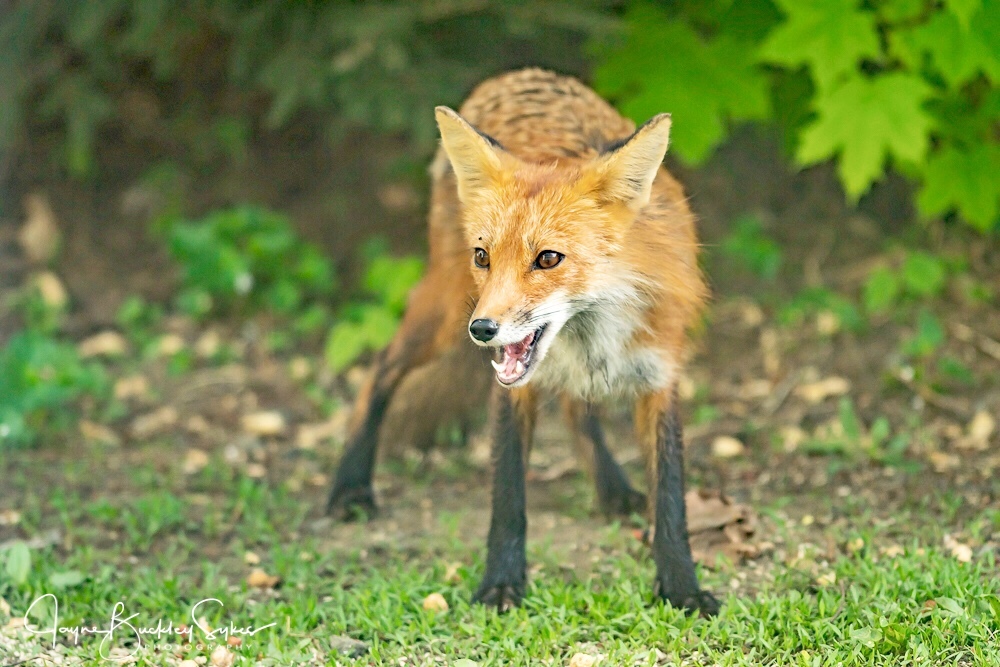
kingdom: Animalia
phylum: Chordata
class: Mammalia
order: Carnivora
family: Canidae
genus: Vulpes
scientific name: Vulpes vulpes
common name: Red fox
